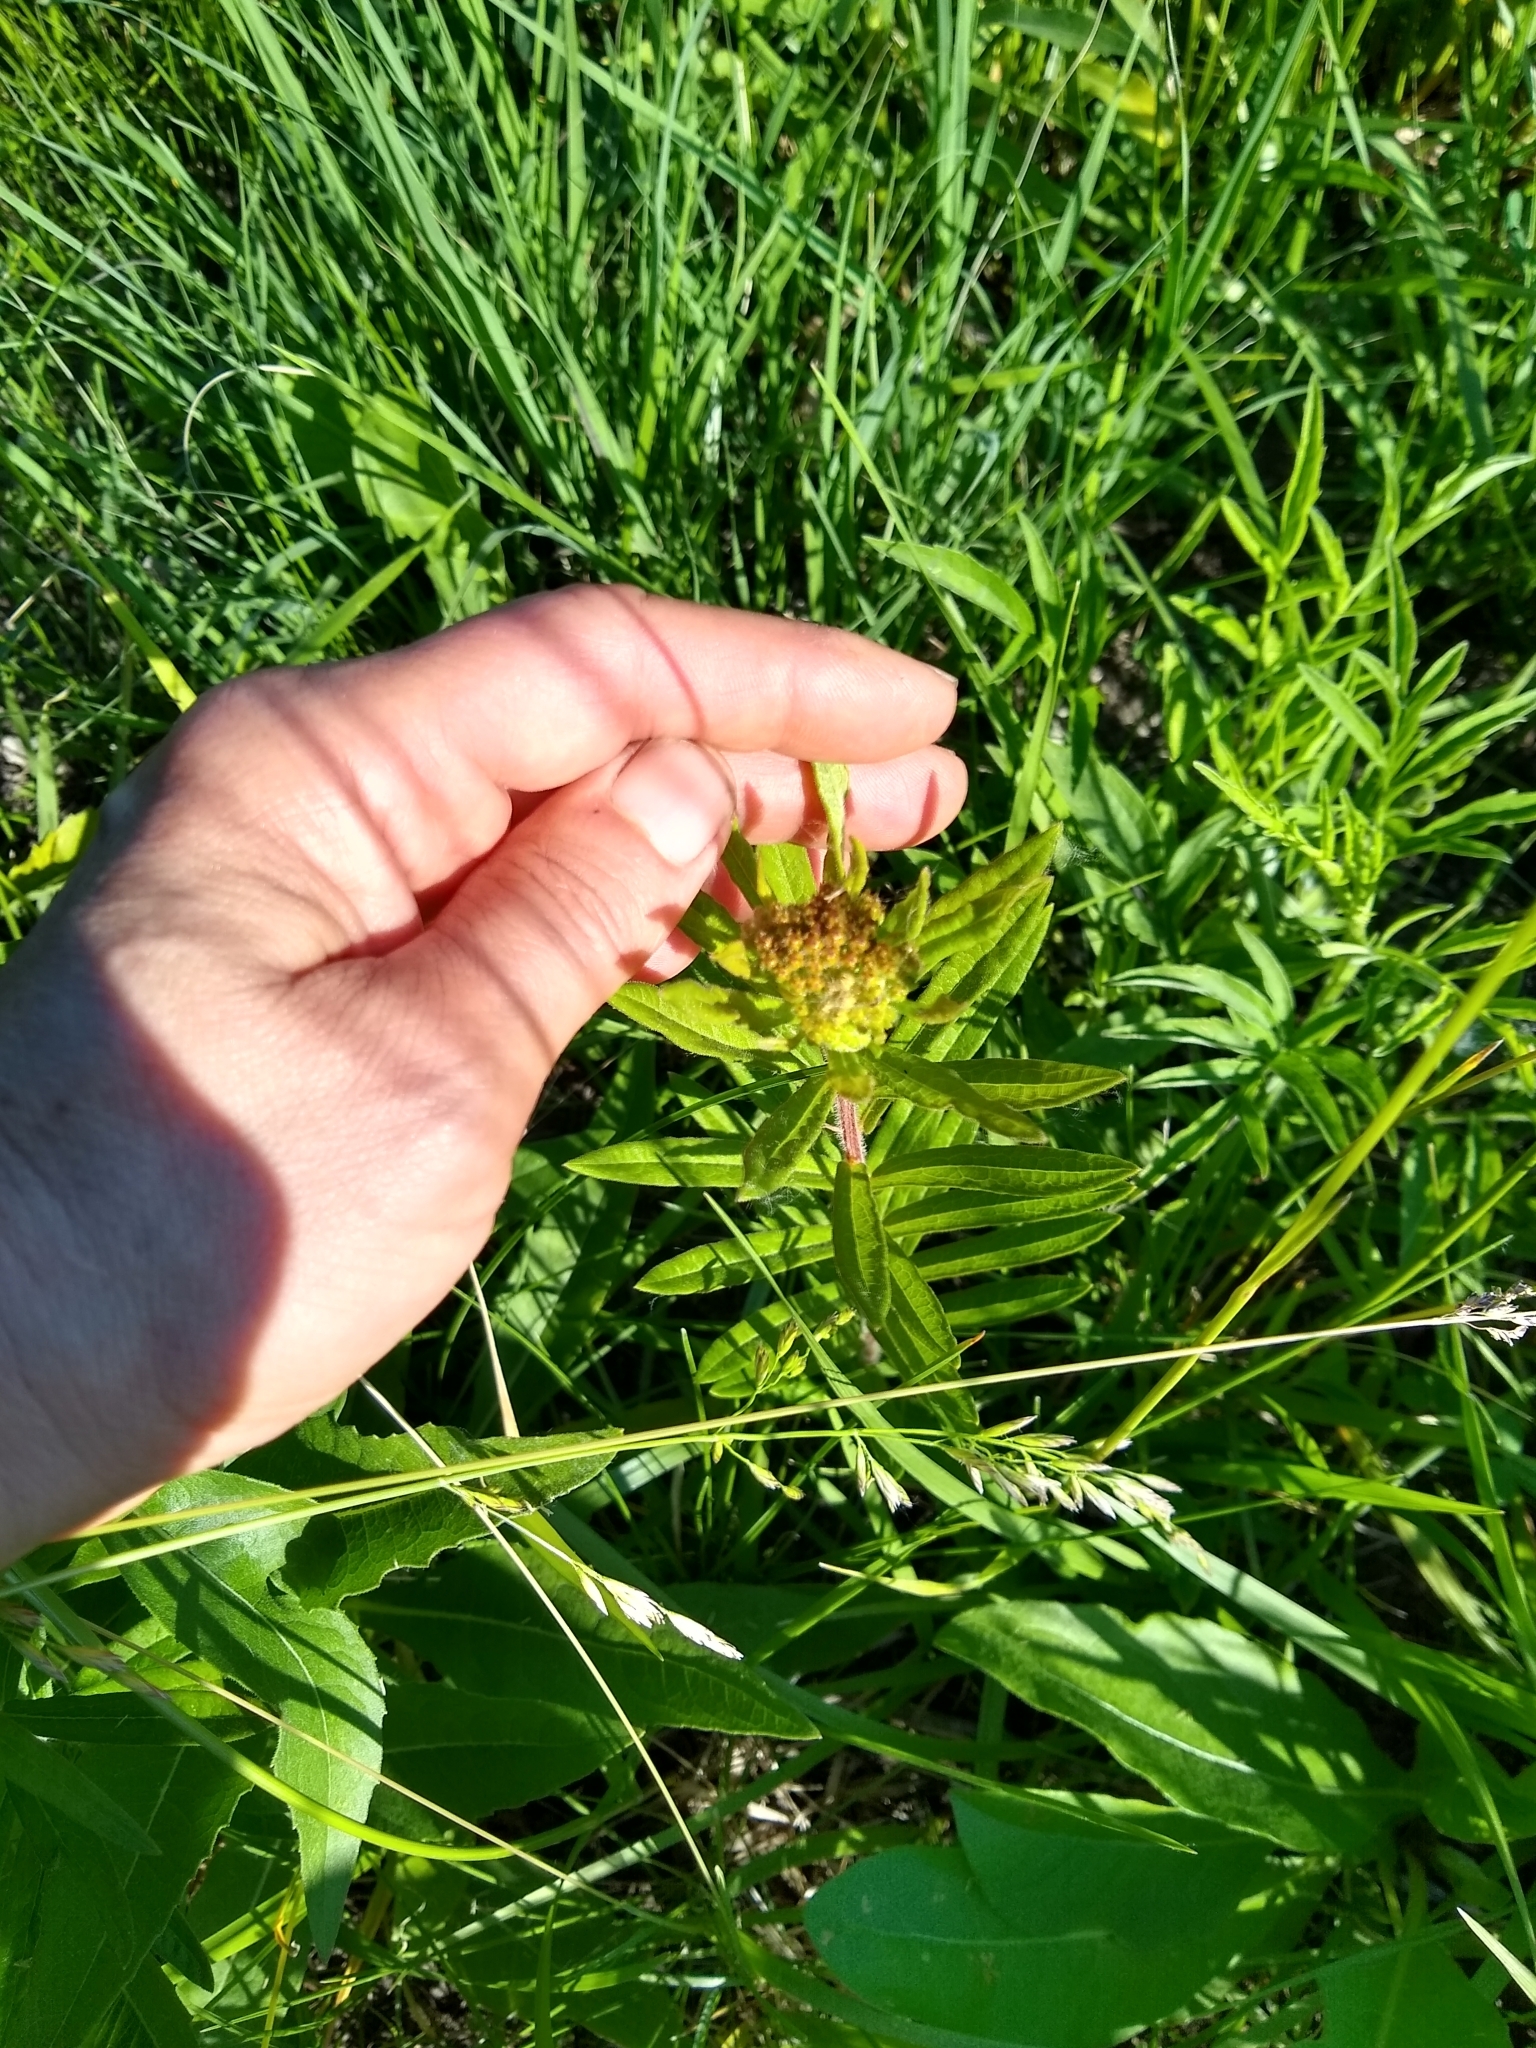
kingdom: Plantae
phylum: Tracheophyta
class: Magnoliopsida
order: Gentianales
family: Apocynaceae
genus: Asclepias
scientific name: Asclepias tuberosa
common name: Butterfly milkweed
